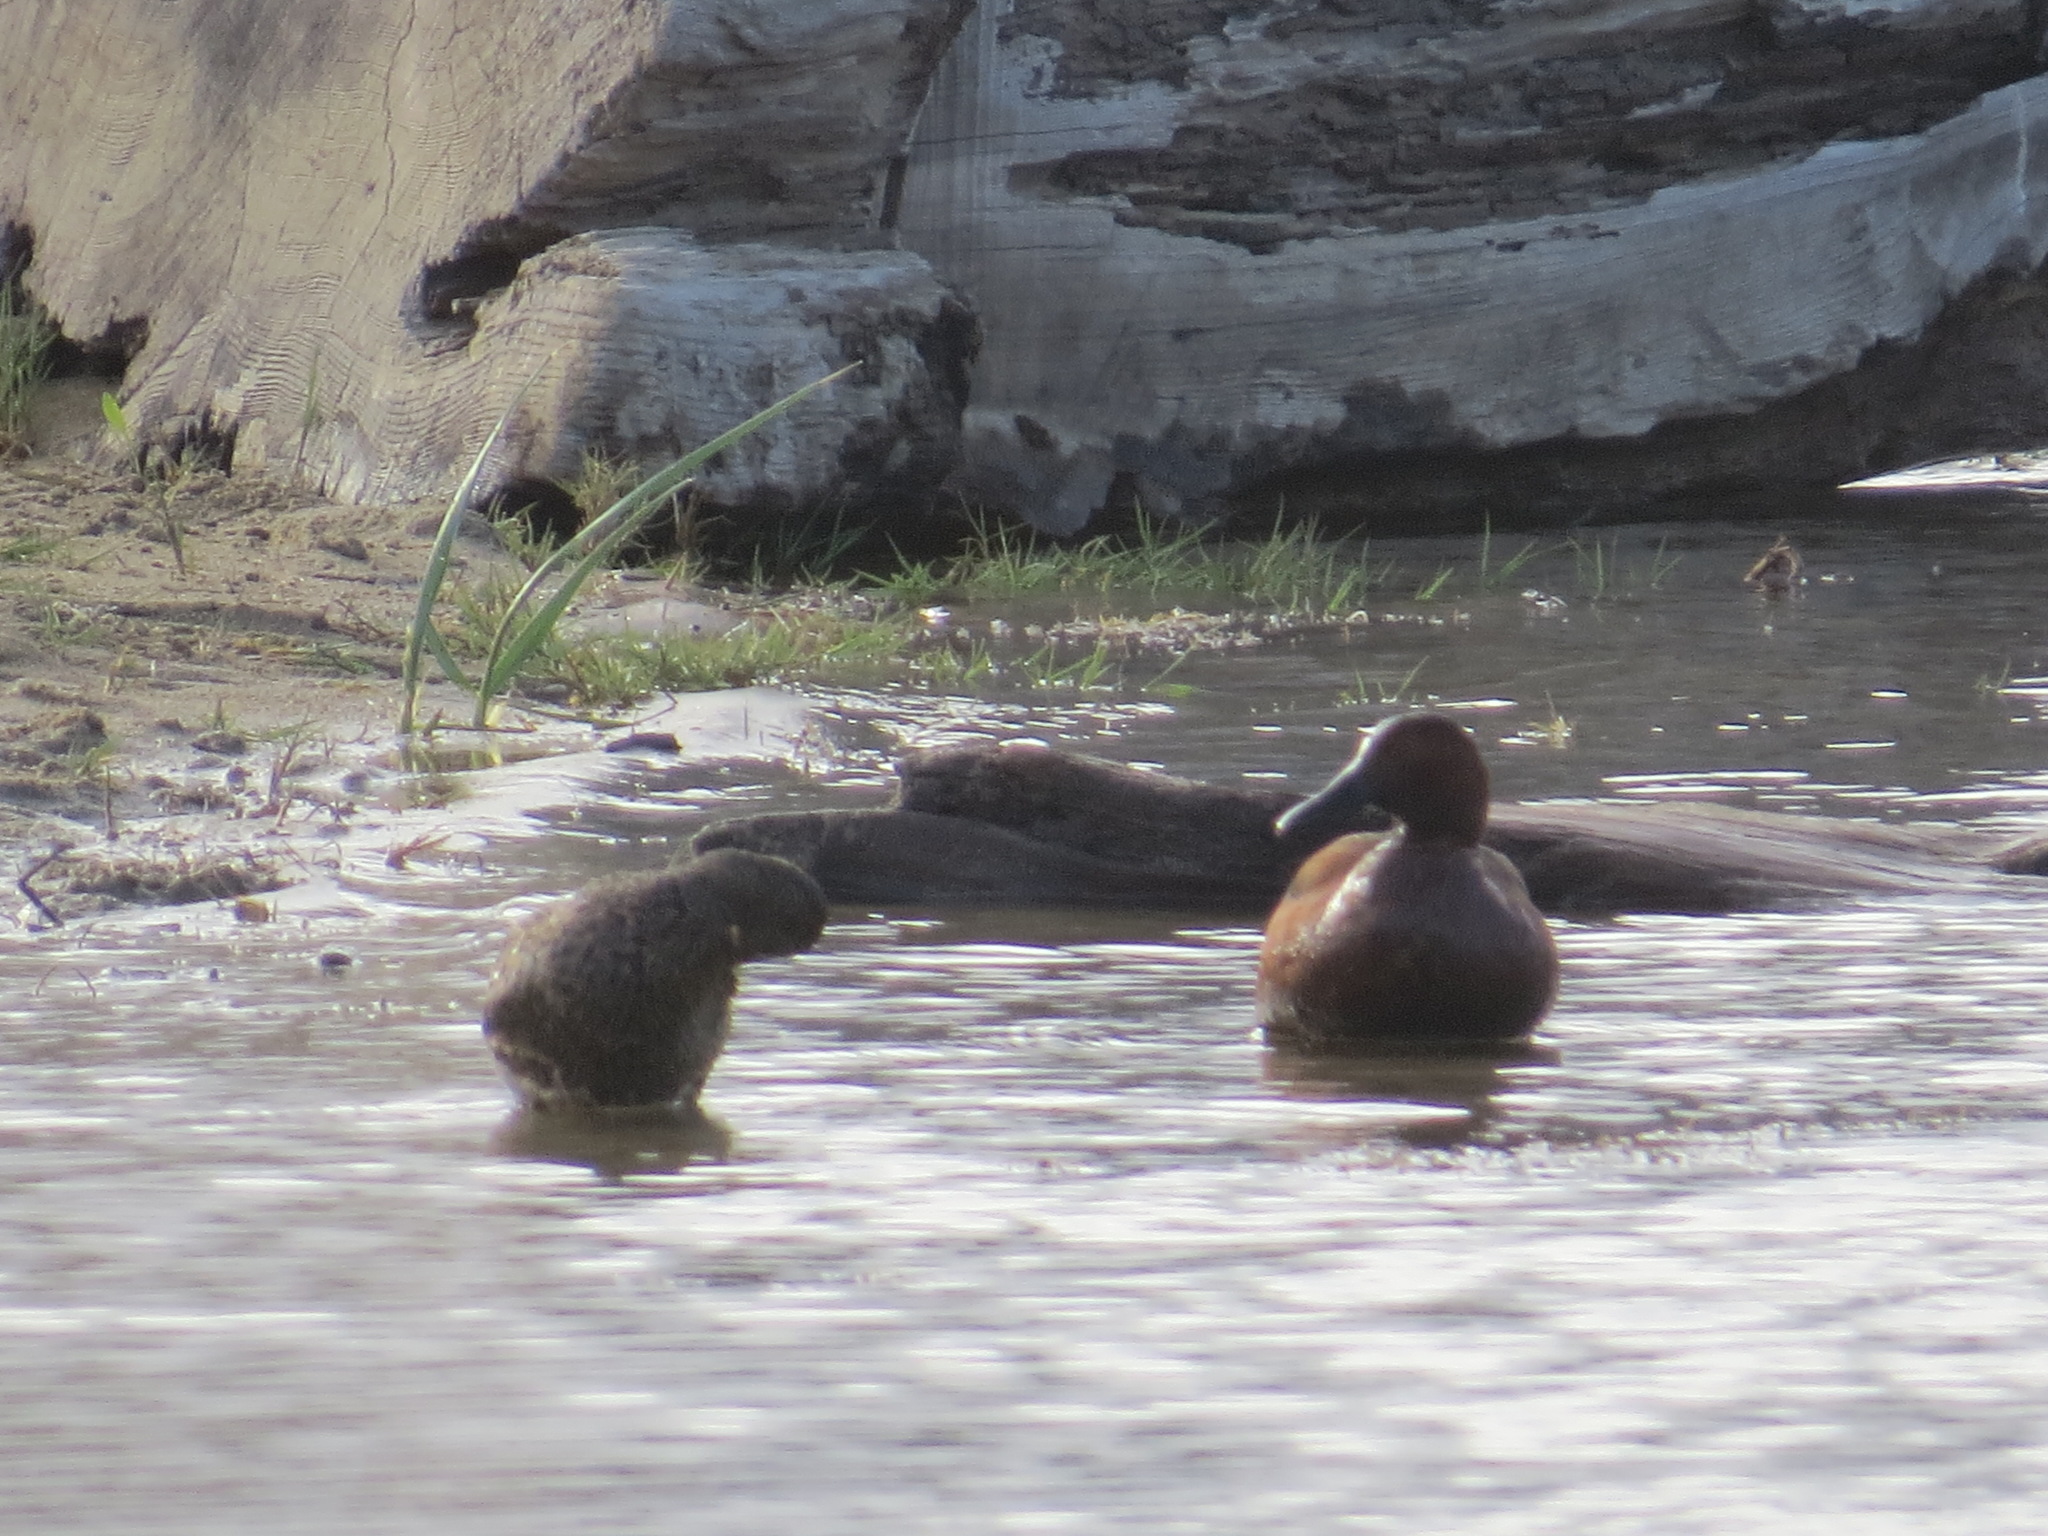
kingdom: Animalia
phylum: Chordata
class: Aves
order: Anseriformes
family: Anatidae
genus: Spatula
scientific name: Spatula cyanoptera
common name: Cinnamon teal
